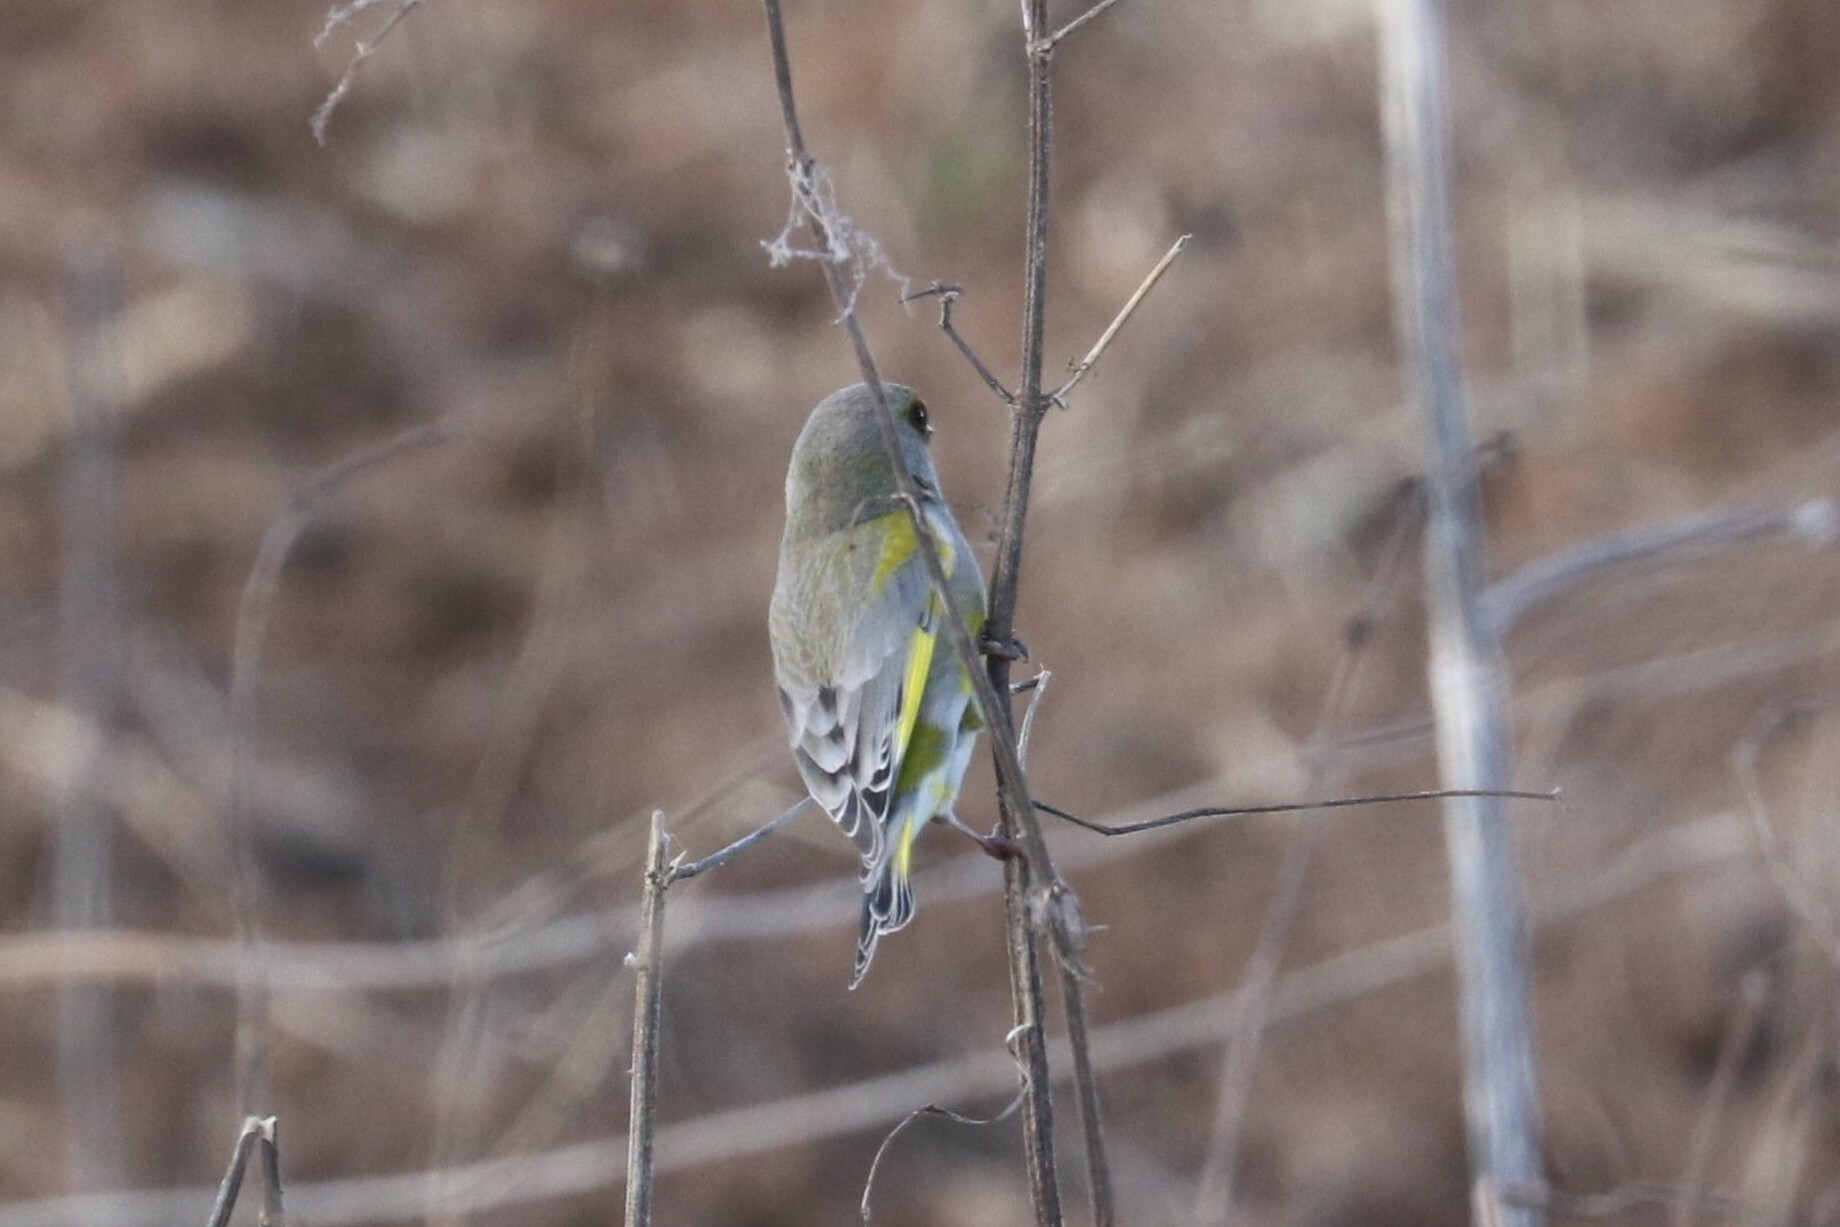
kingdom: Plantae
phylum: Tracheophyta
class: Liliopsida
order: Poales
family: Poaceae
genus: Chloris
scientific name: Chloris chloris
